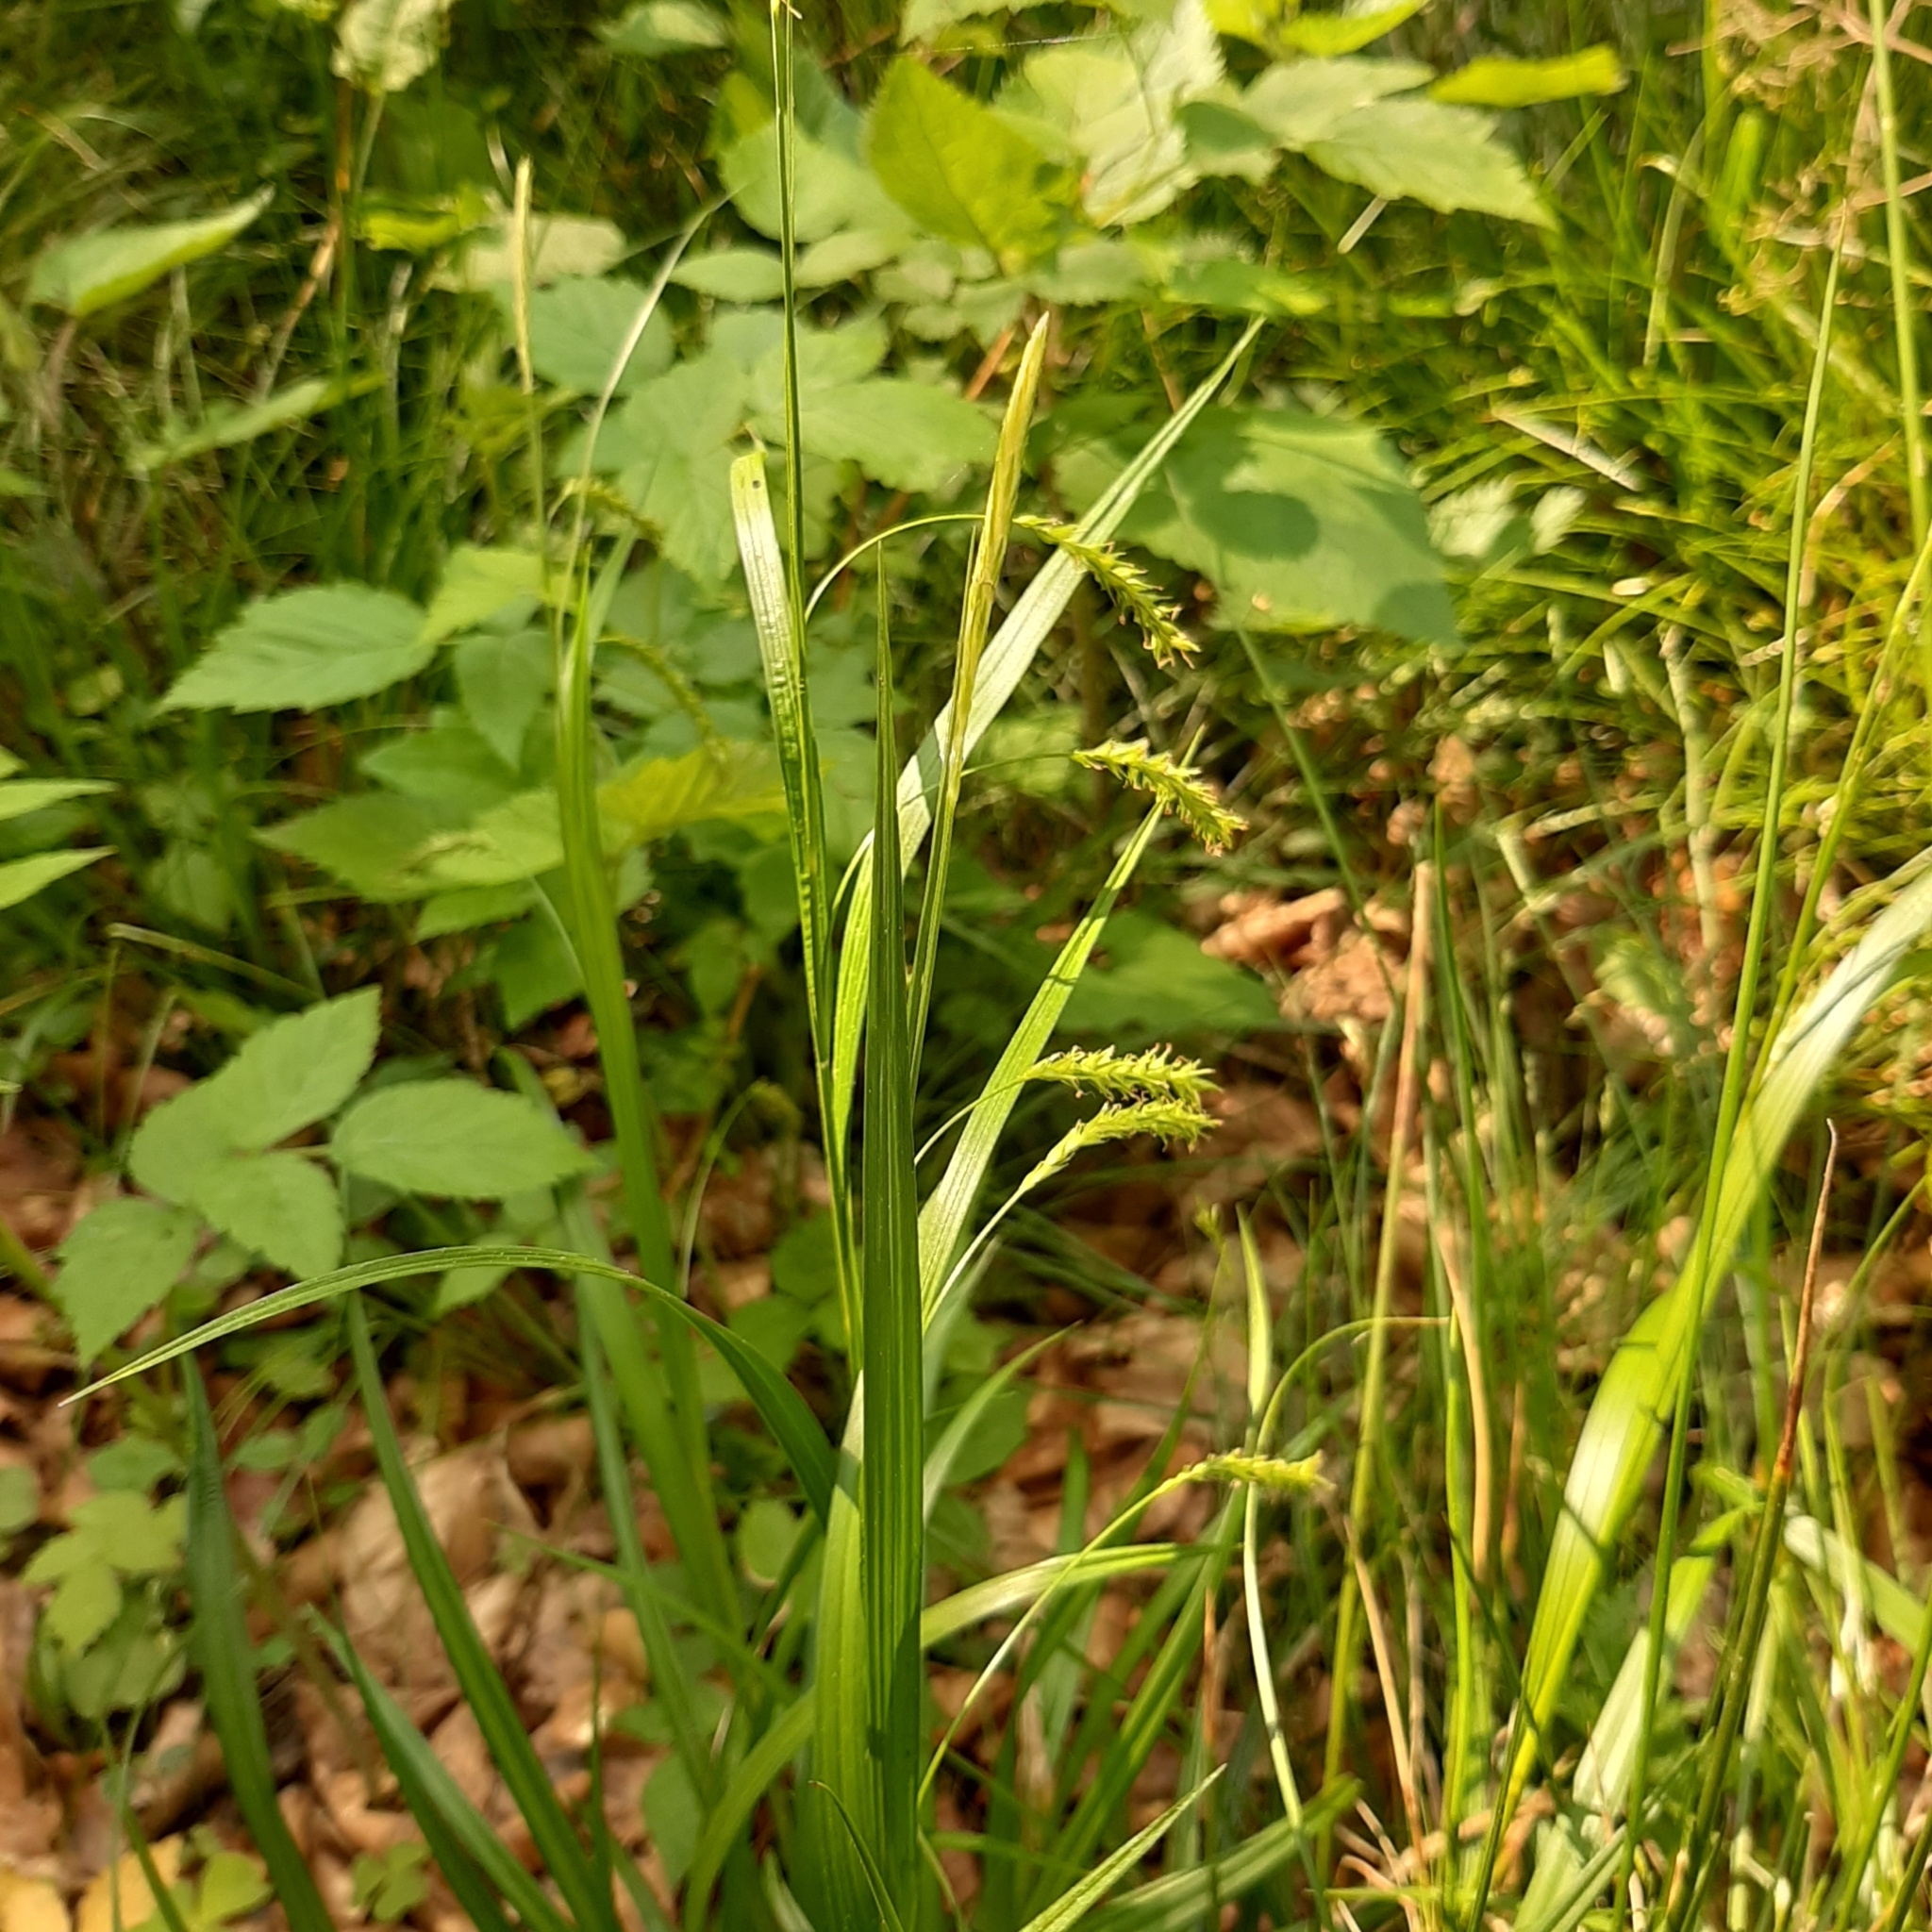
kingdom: Plantae
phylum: Tracheophyta
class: Liliopsida
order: Poales
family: Cyperaceae
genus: Carex
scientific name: Carex sylvatica
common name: Wood-sedge
